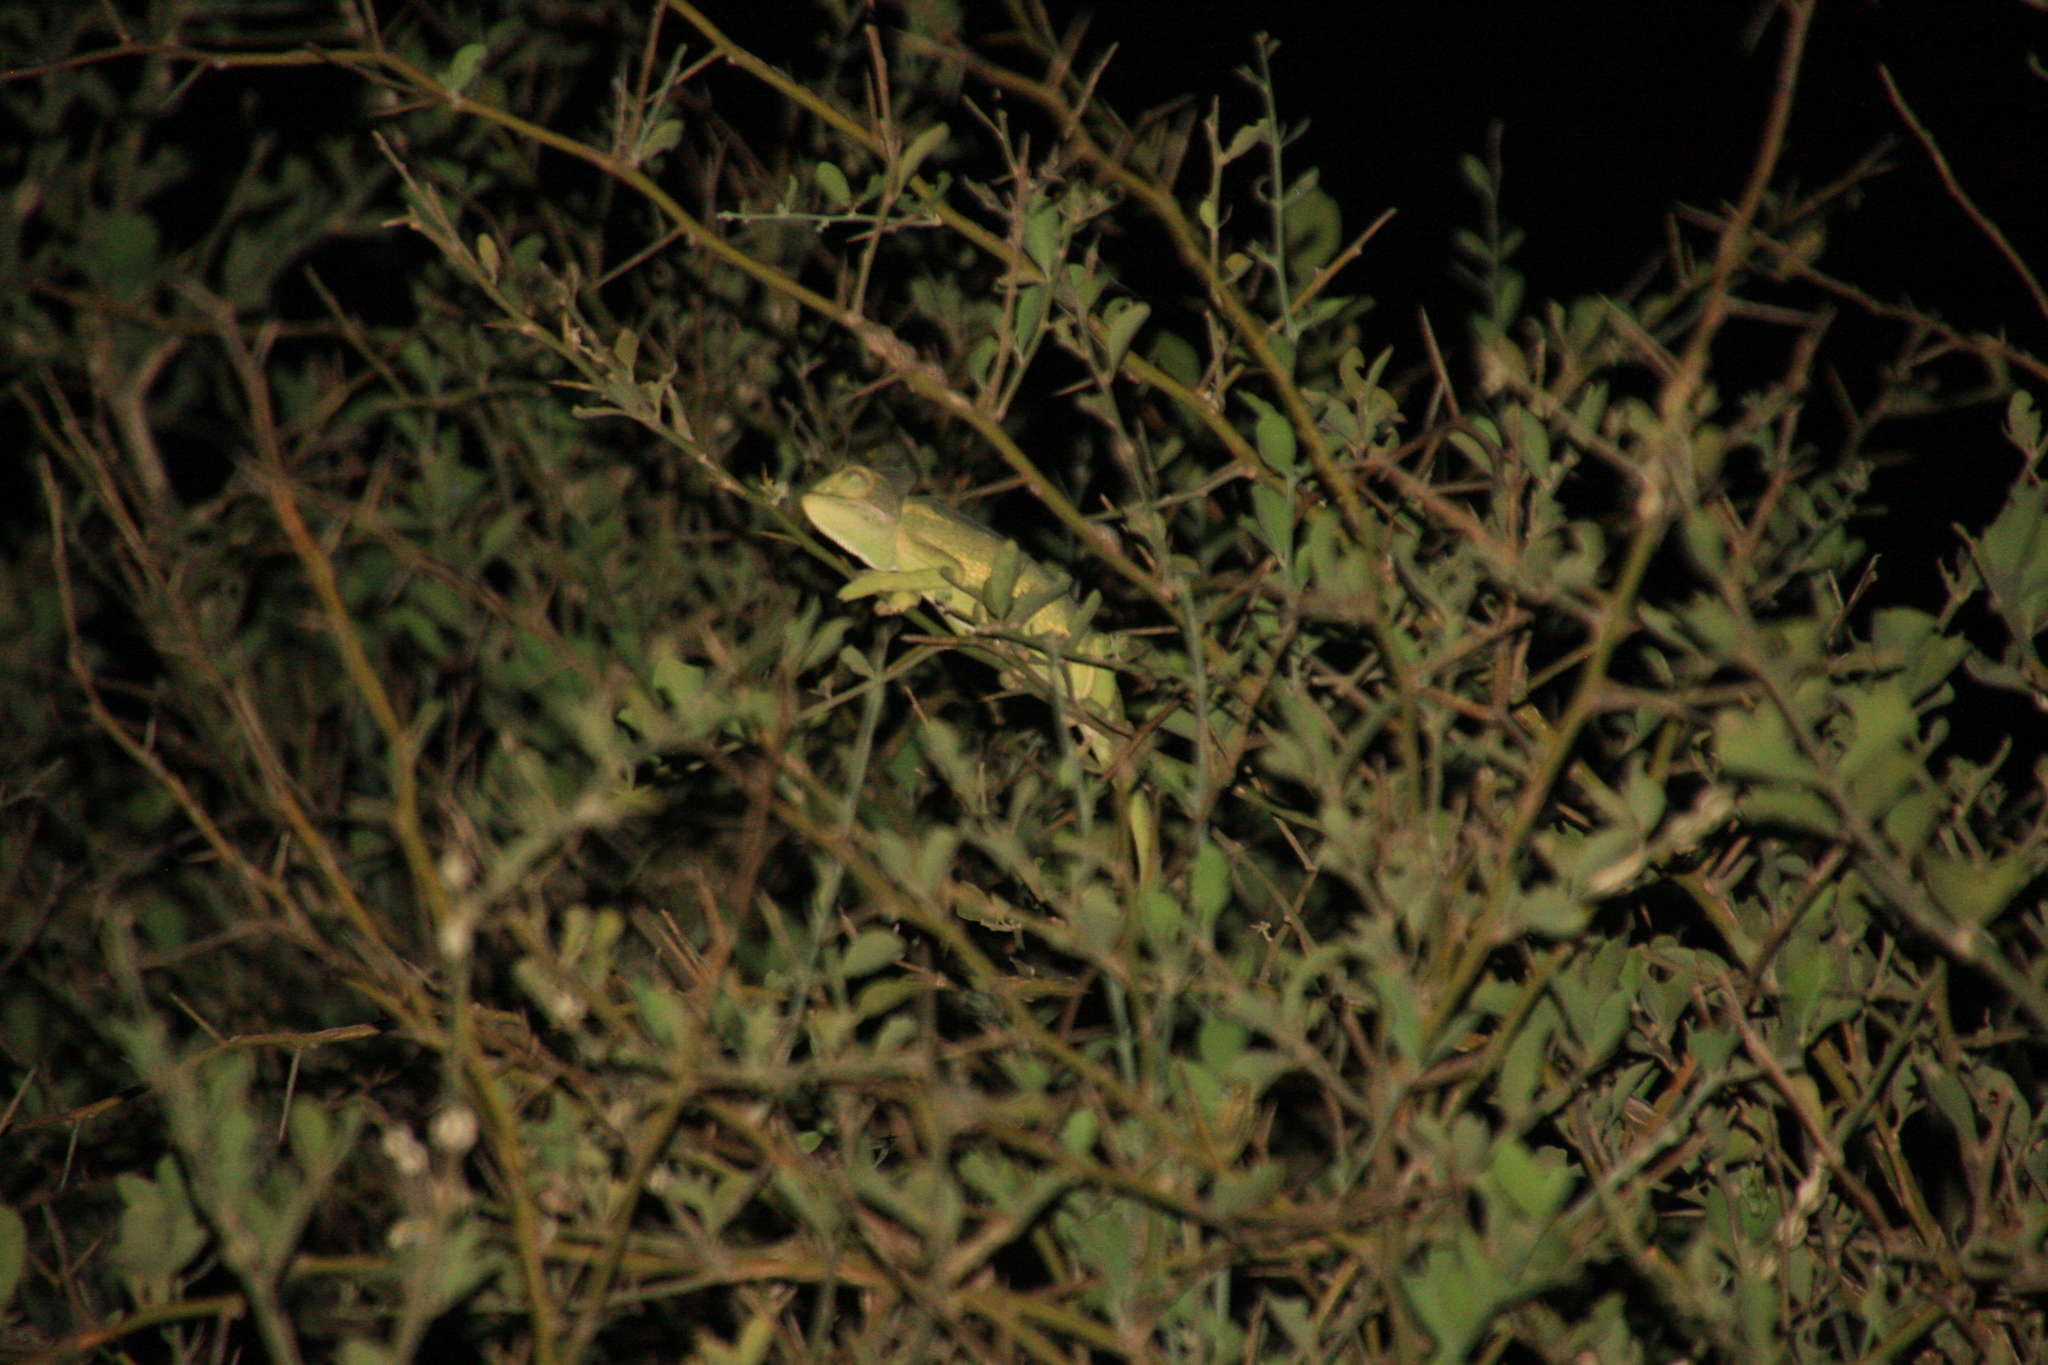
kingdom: Animalia
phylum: Chordata
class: Squamata
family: Chamaeleonidae
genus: Chamaeleo
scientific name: Chamaeleo africanus
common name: African chameleon
